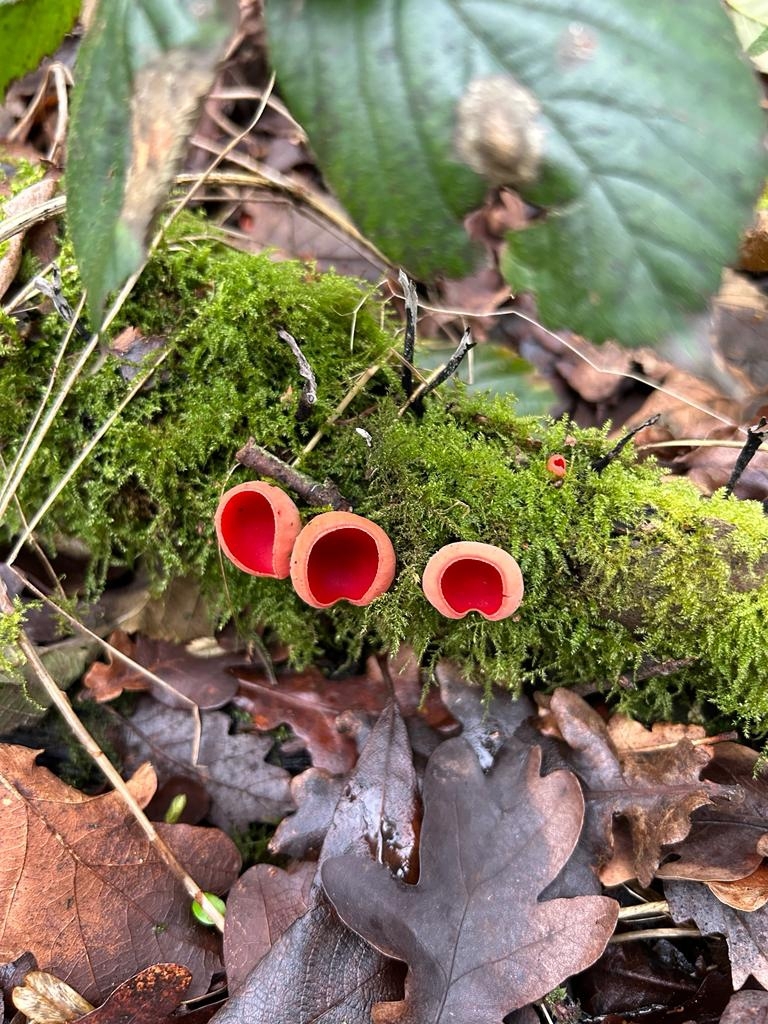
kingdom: Fungi
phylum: Ascomycota
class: Pezizomycetes
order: Pezizales
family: Sarcoscyphaceae
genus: Sarcoscypha
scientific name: Sarcoscypha
